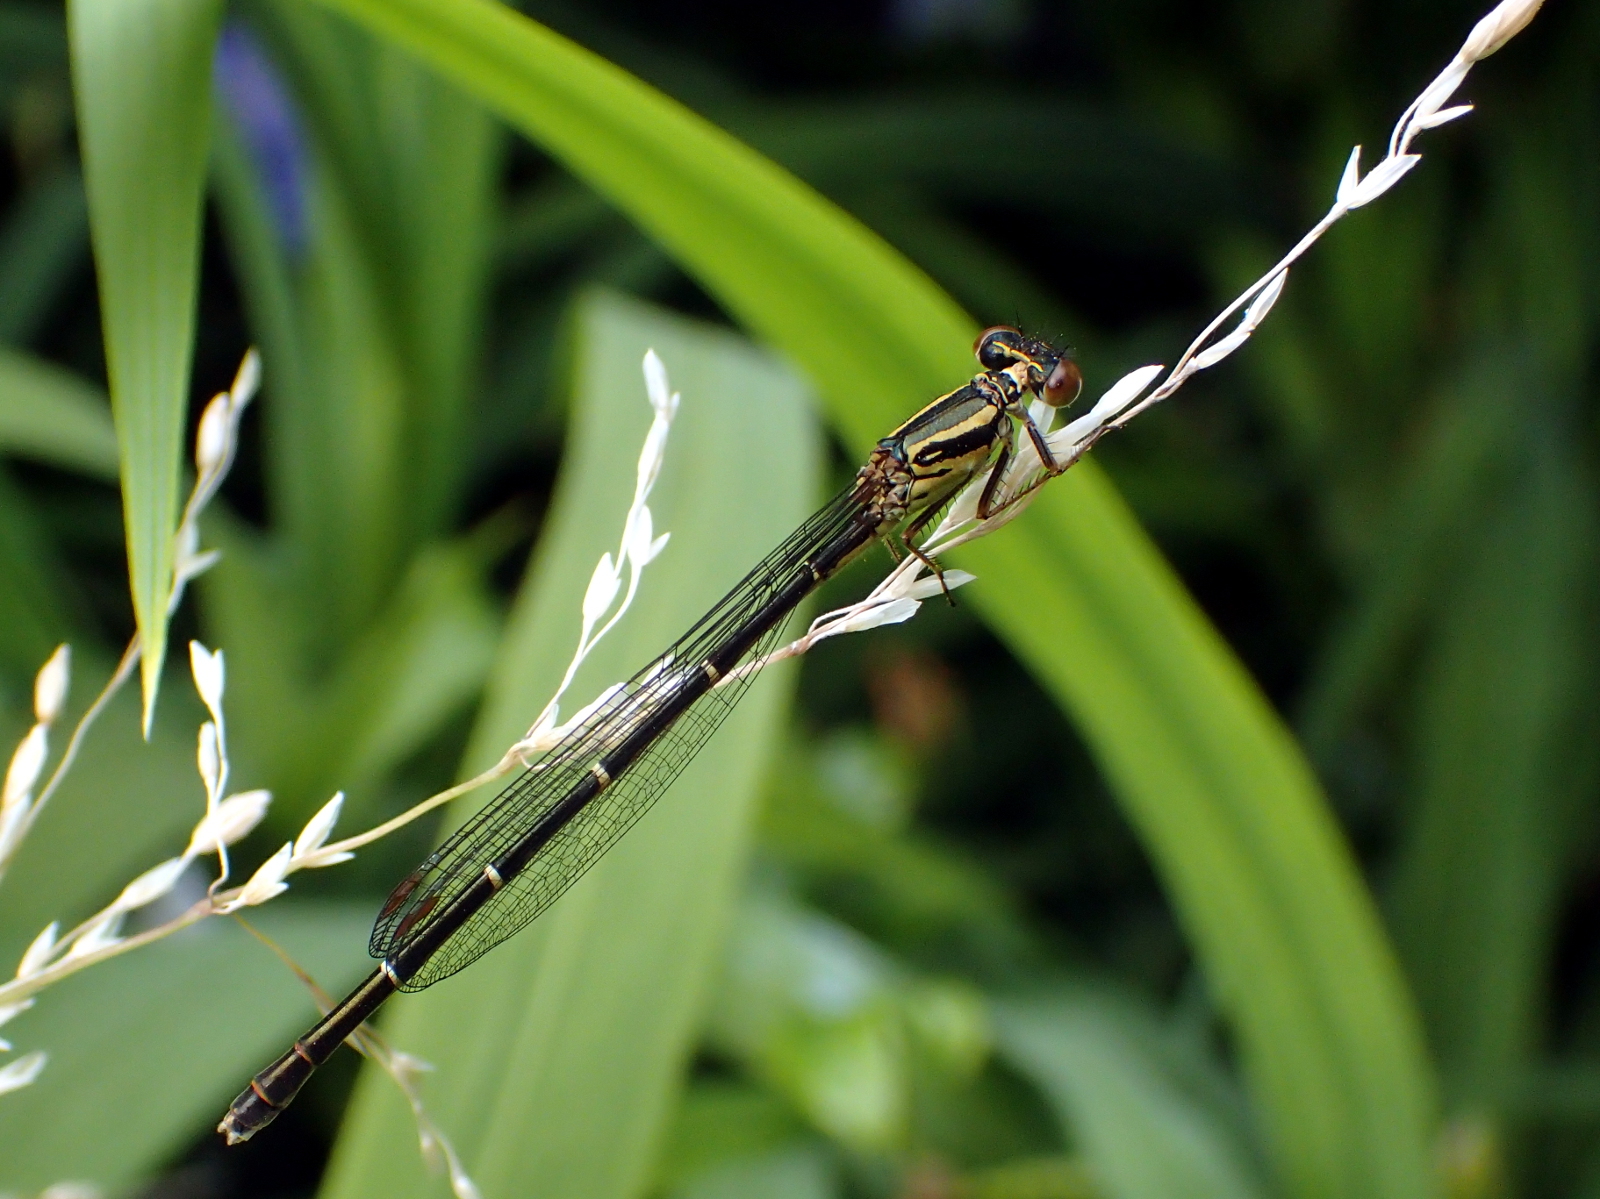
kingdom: Animalia
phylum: Arthropoda
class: Insecta
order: Odonata
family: Coenagrionidae
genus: Xanthocnemis
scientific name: Xanthocnemis zealandica
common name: Common redcoat damselfly
